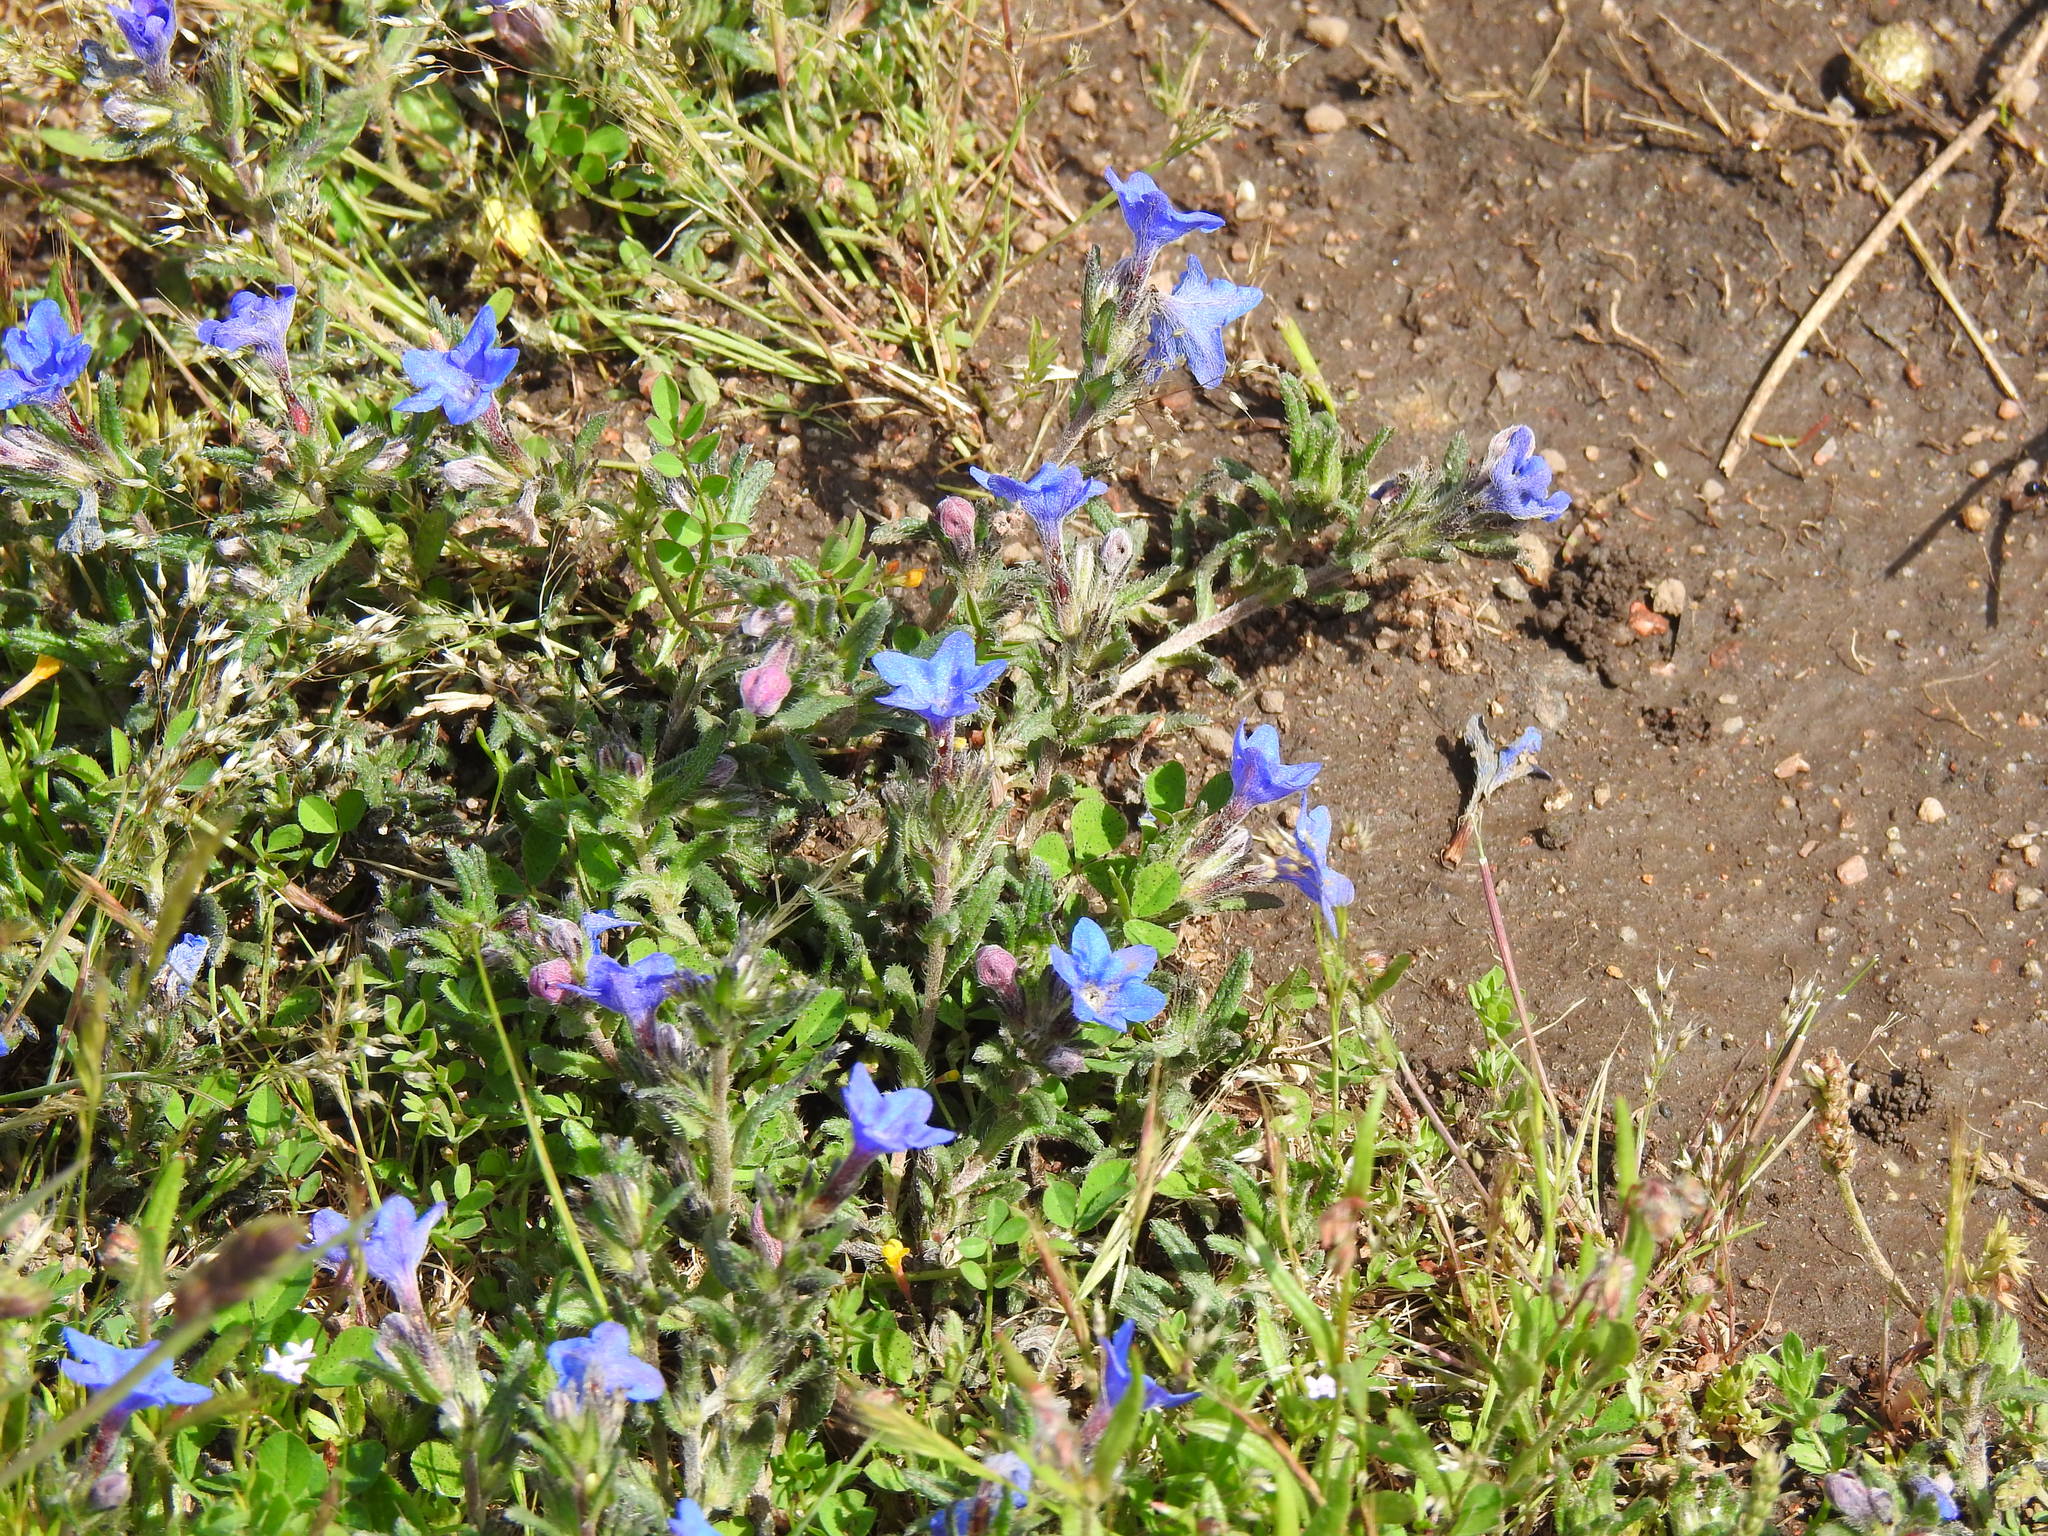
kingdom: Plantae
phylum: Tracheophyta
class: Magnoliopsida
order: Boraginales
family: Boraginaceae
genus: Glandora
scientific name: Glandora prostrata
